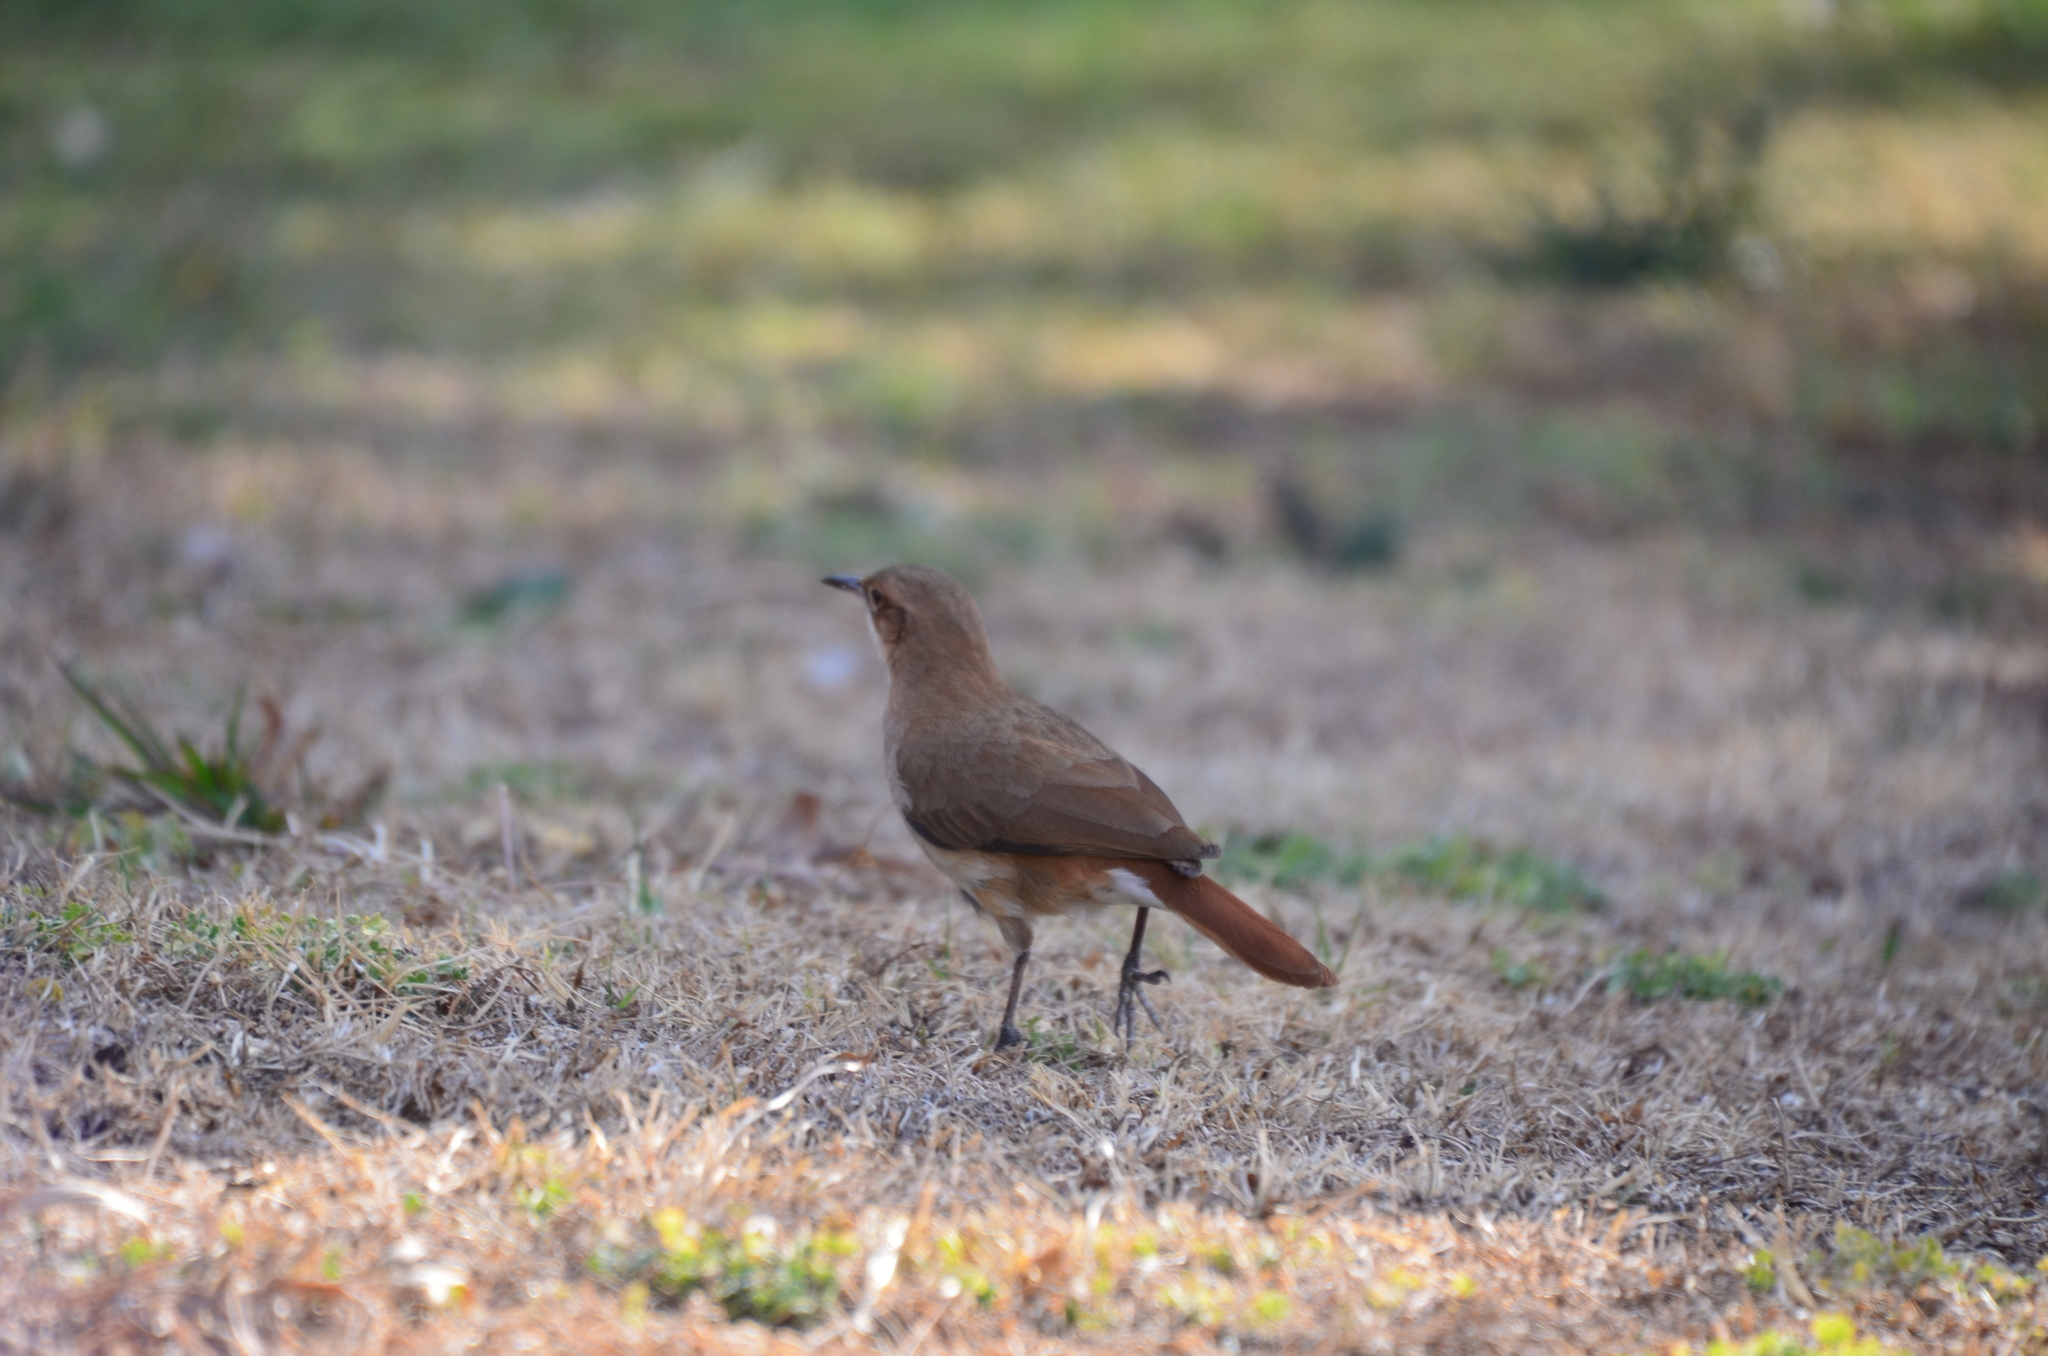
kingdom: Animalia
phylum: Chordata
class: Aves
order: Passeriformes
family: Furnariidae
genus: Furnarius
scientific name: Furnarius rufus
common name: Rufous hornero
